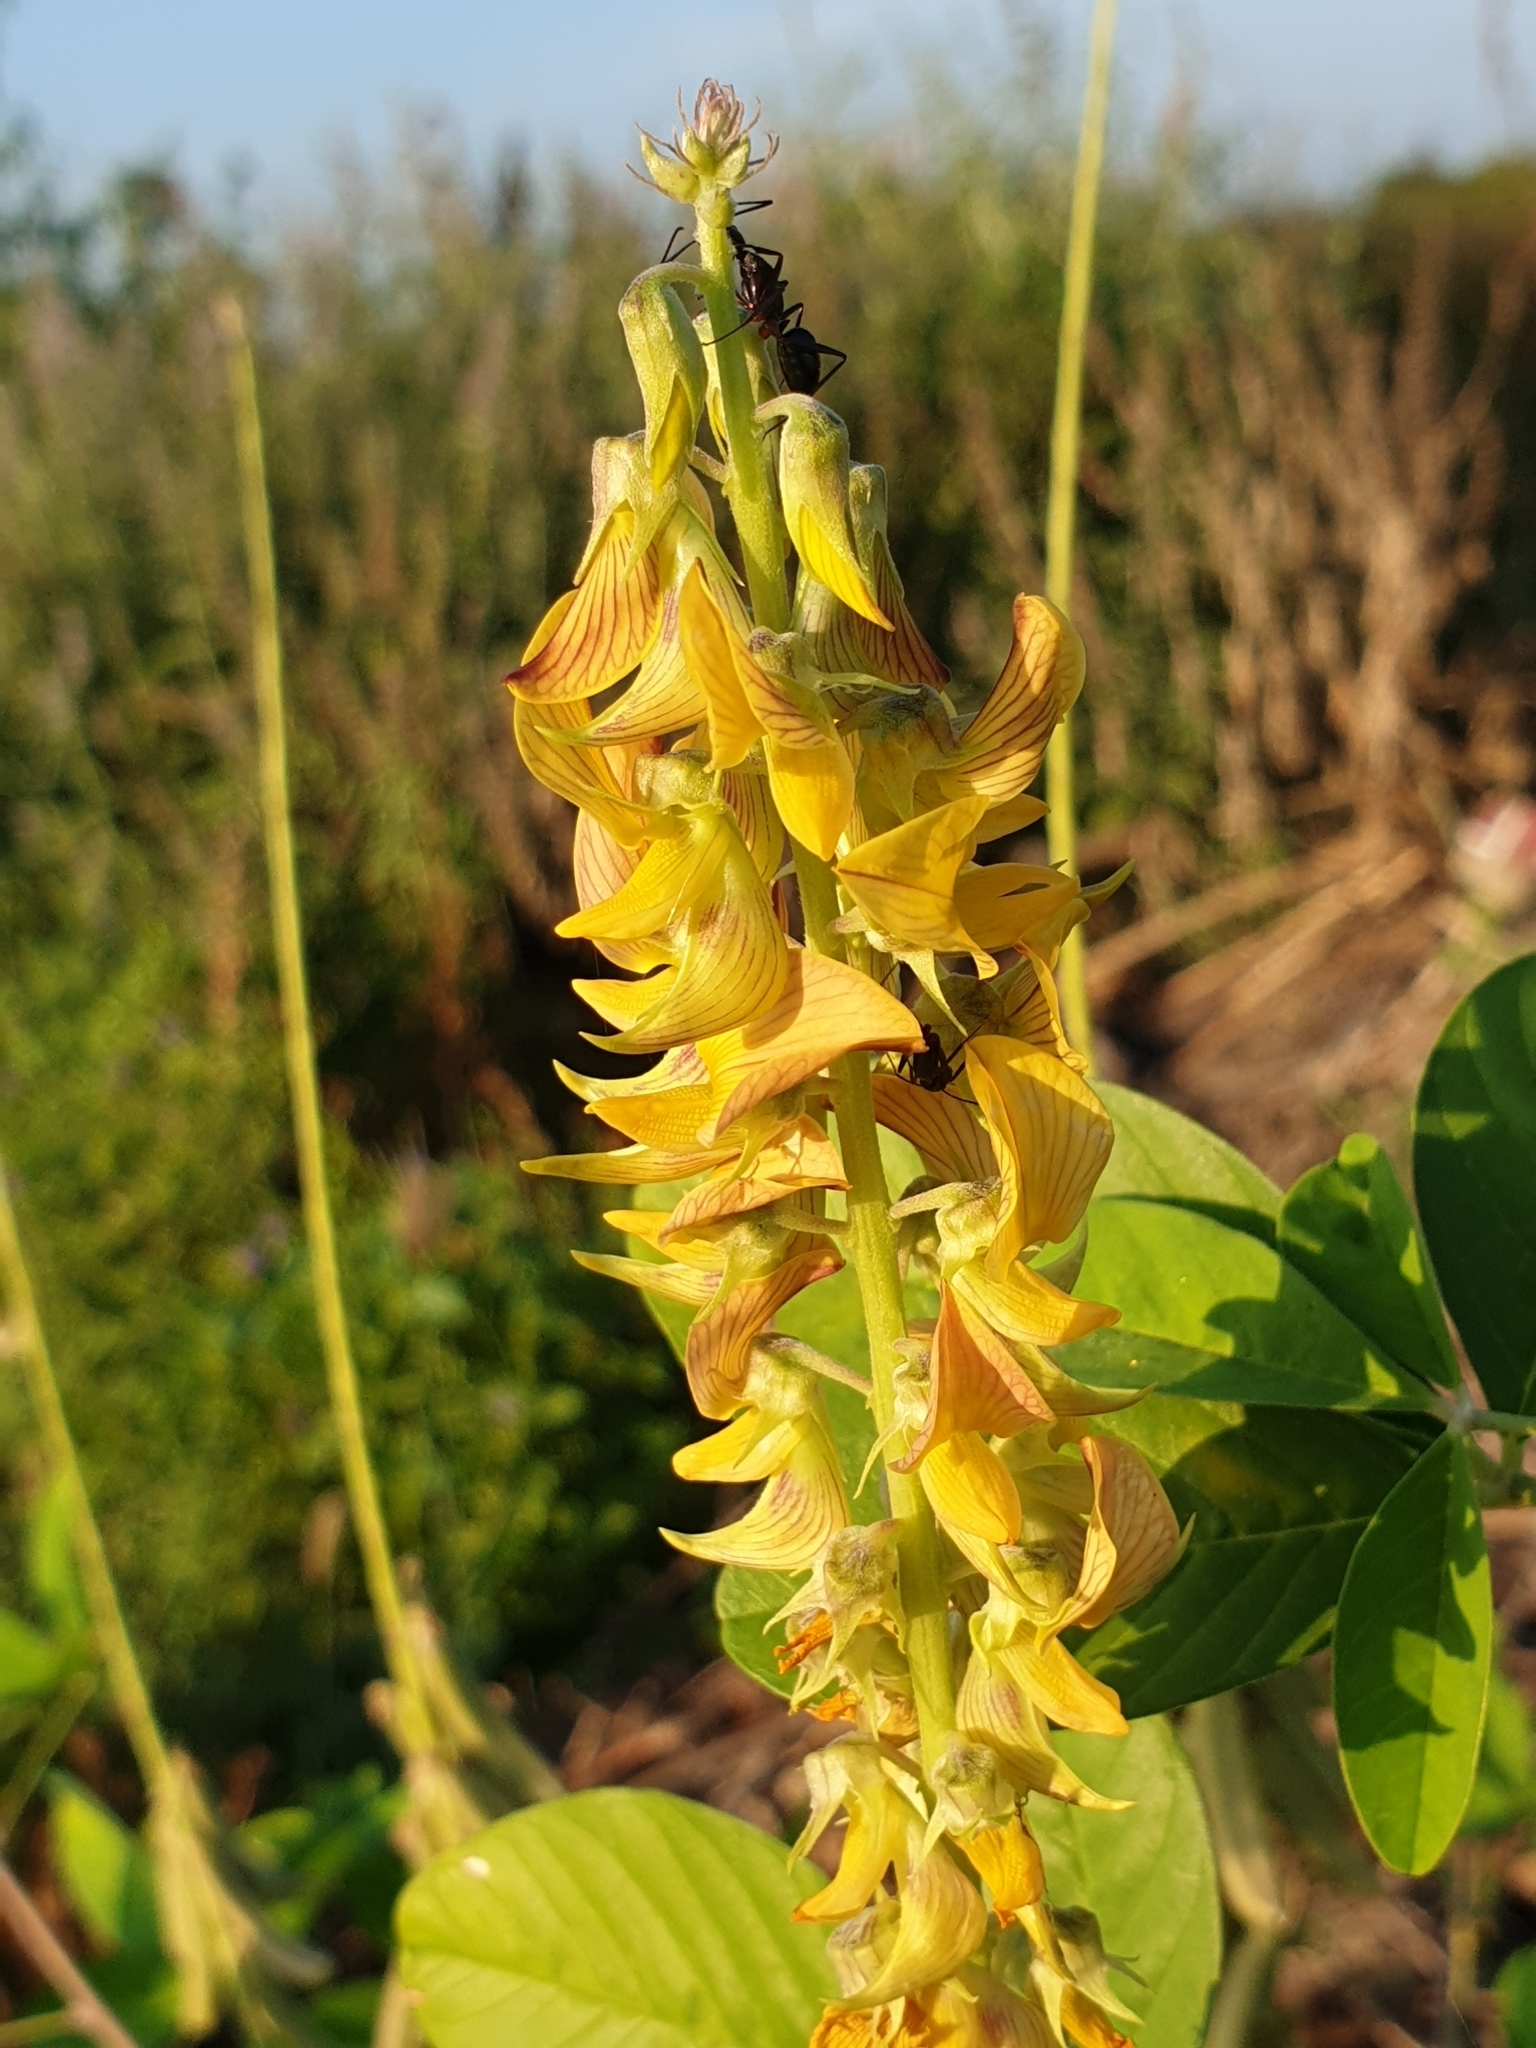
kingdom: Plantae
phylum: Tracheophyta
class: Magnoliopsida
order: Fabales
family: Fabaceae
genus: Crotalaria
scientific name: Crotalaria pallida
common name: Smooth rattlebox
